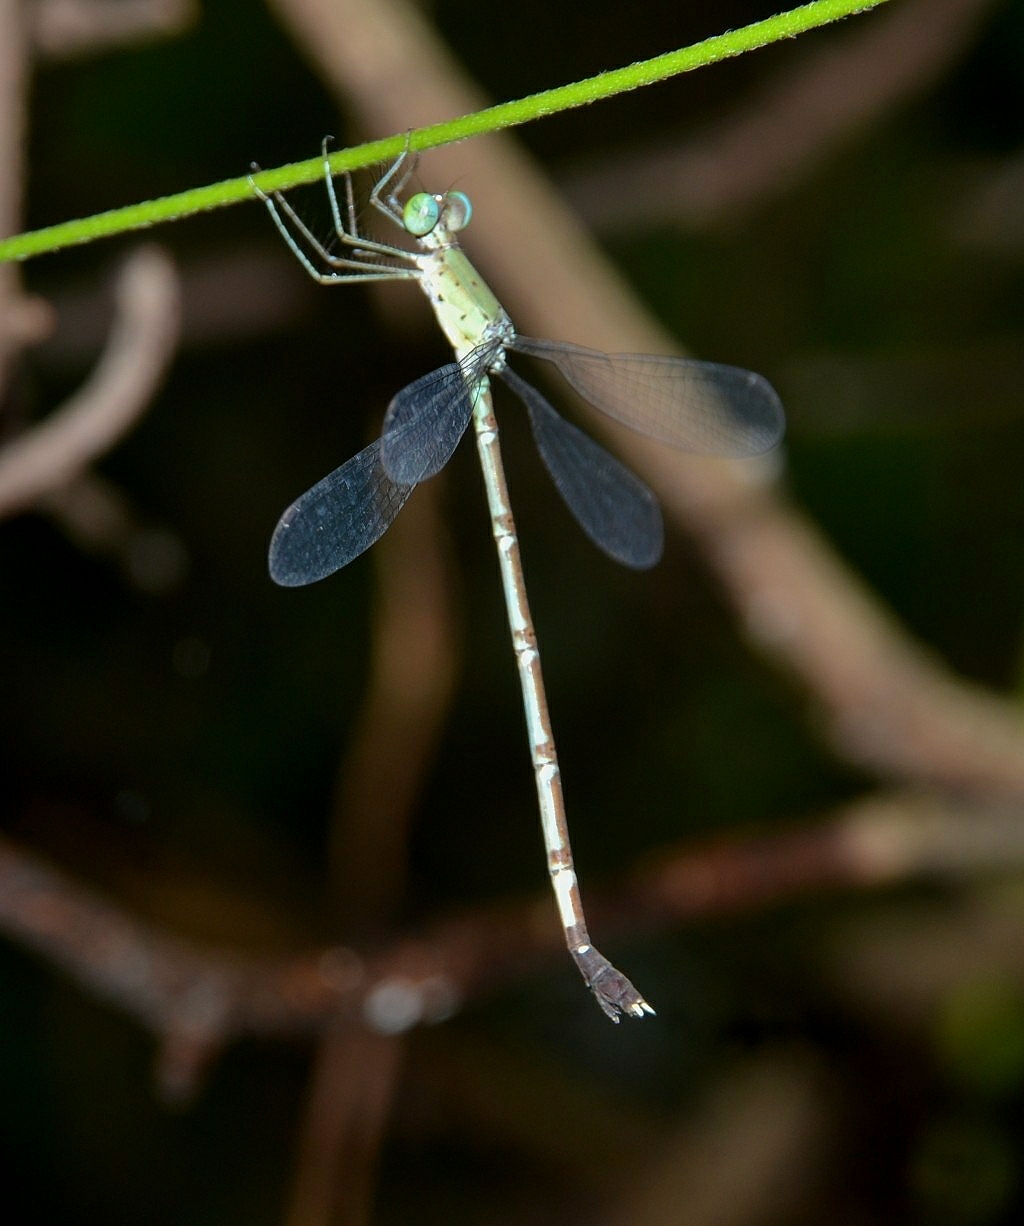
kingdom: Animalia
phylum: Arthropoda
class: Insecta
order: Odonata
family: Lestidae
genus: Platylestes
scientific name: Platylestes platystylus
